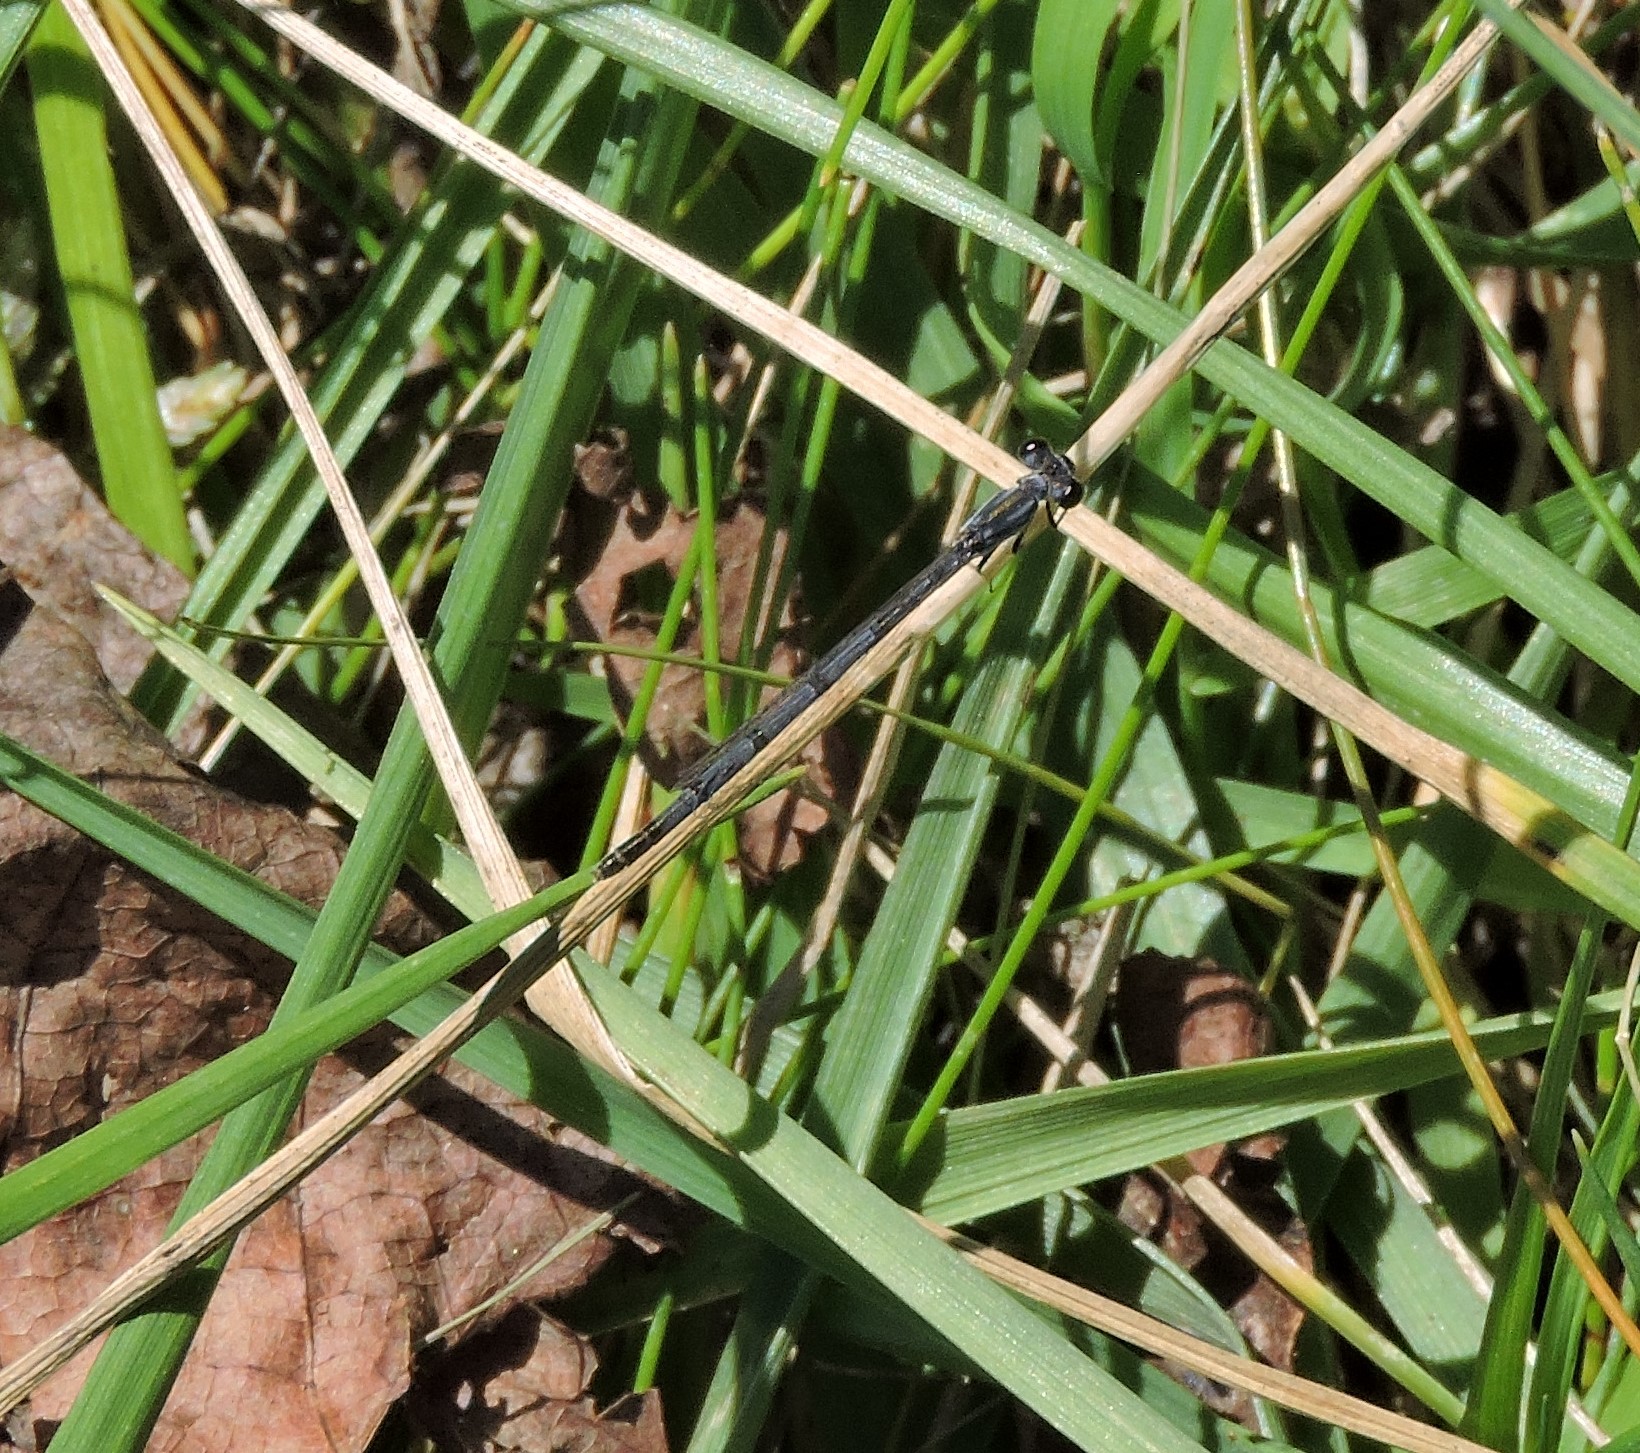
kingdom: Animalia
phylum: Arthropoda
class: Insecta
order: Odonata
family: Coenagrionidae
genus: Ischnura
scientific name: Ischnura posita
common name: Fragile forktail
